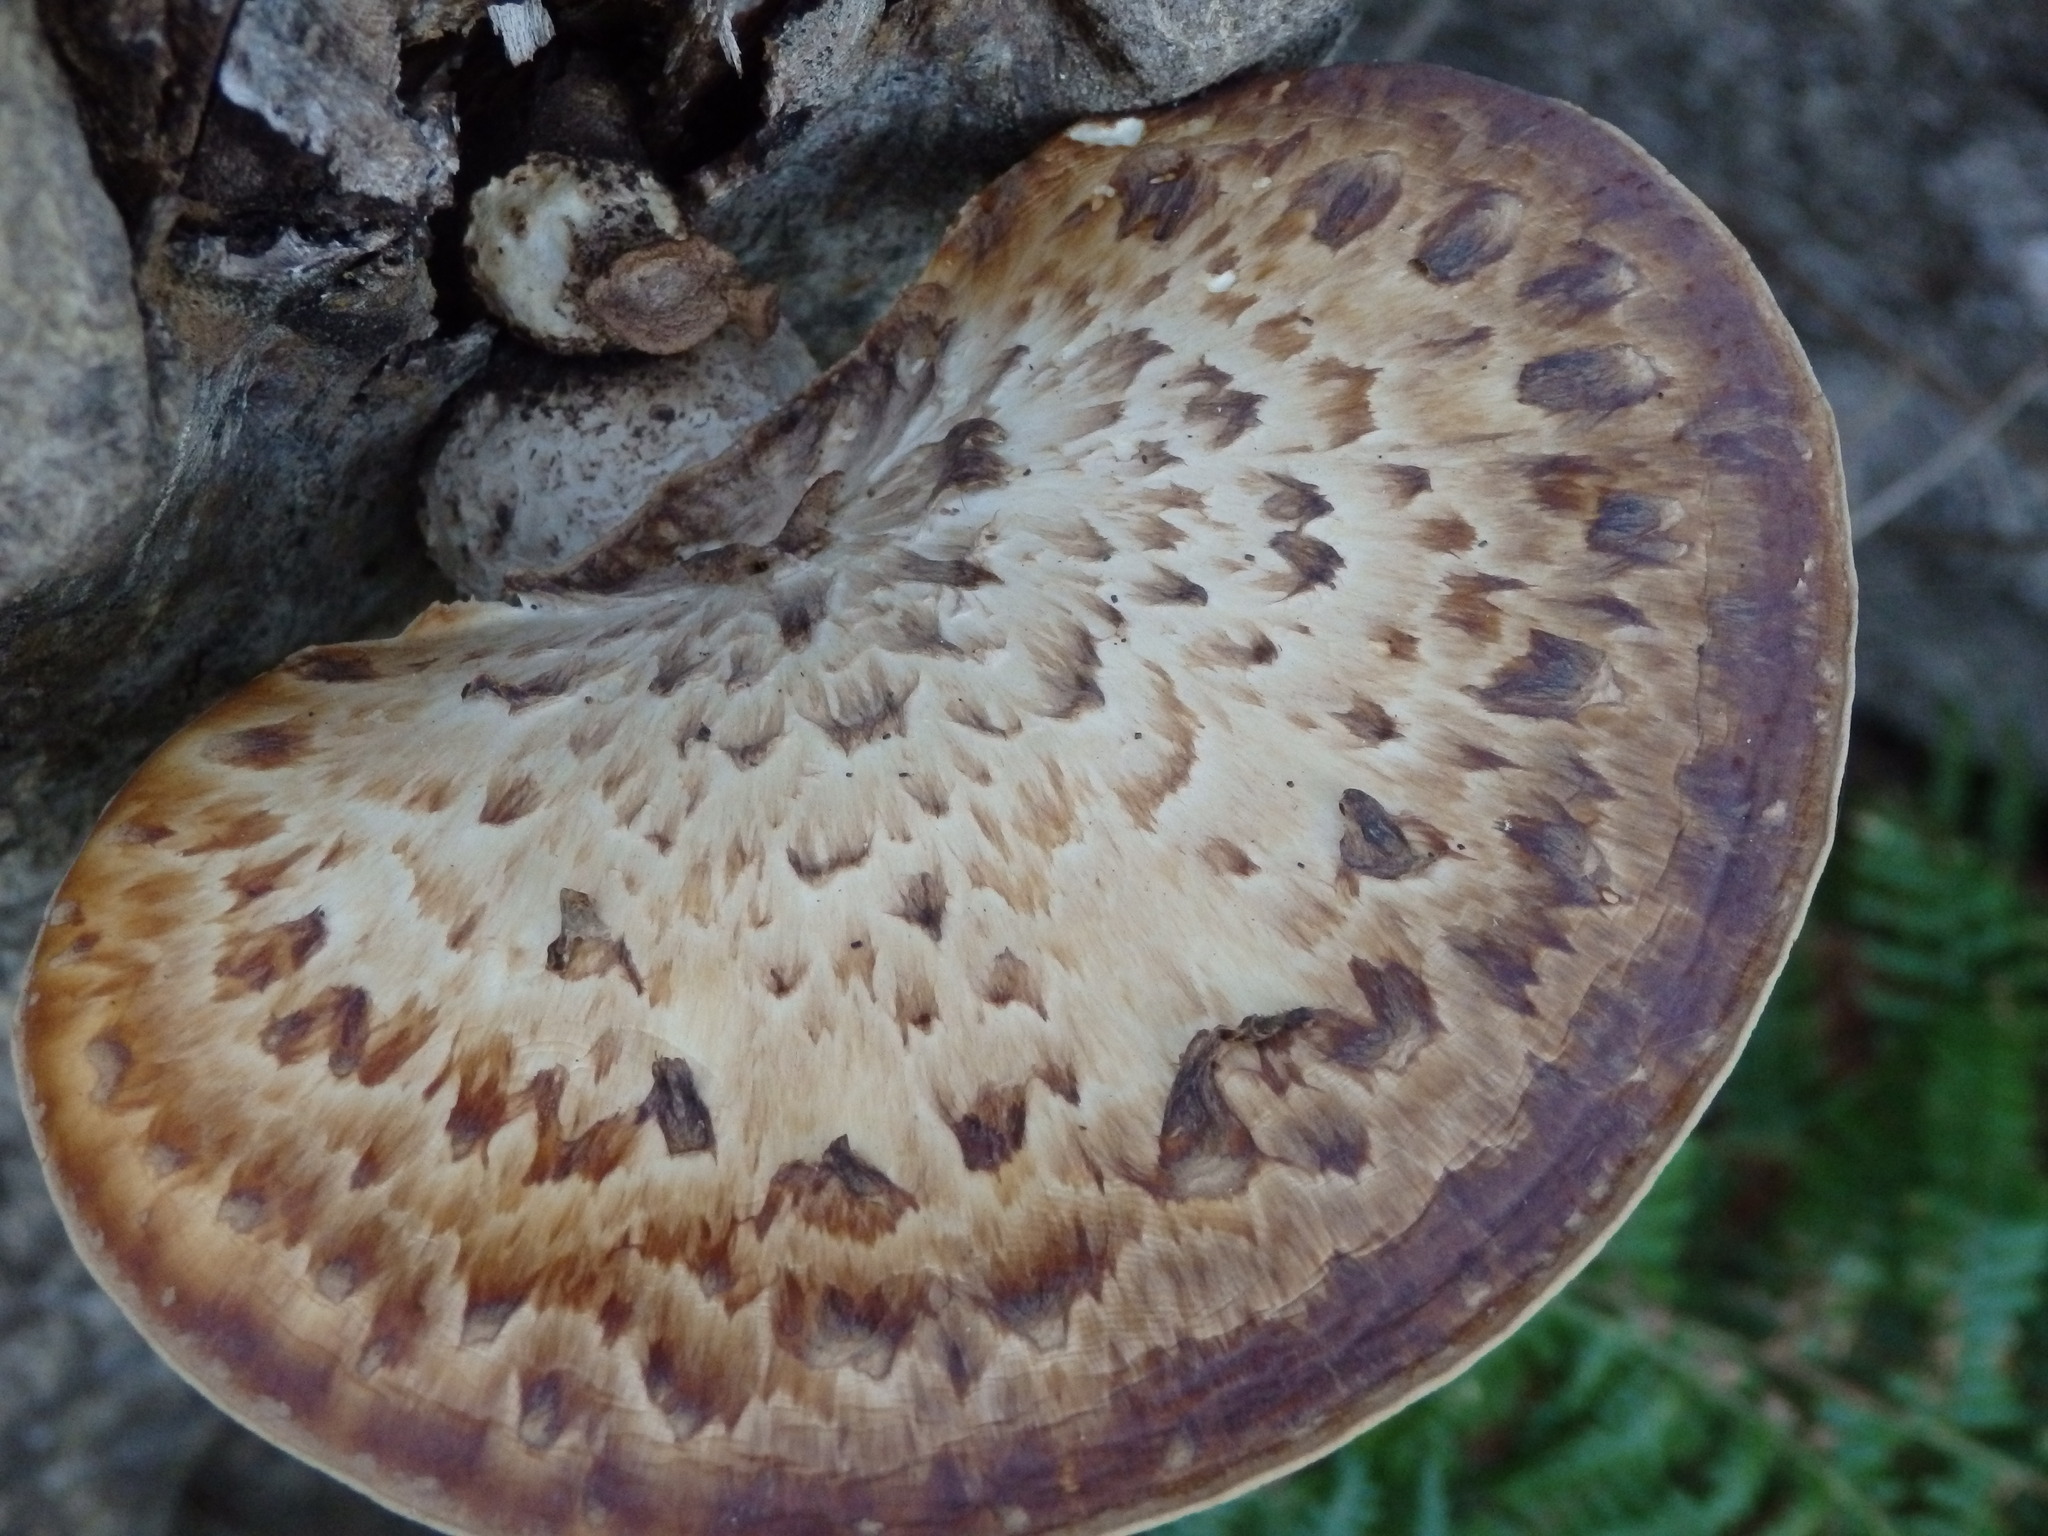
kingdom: Fungi
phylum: Basidiomycota
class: Agaricomycetes
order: Polyporales
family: Polyporaceae
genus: Cerioporus
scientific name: Cerioporus squamosus
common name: Dryad's saddle
